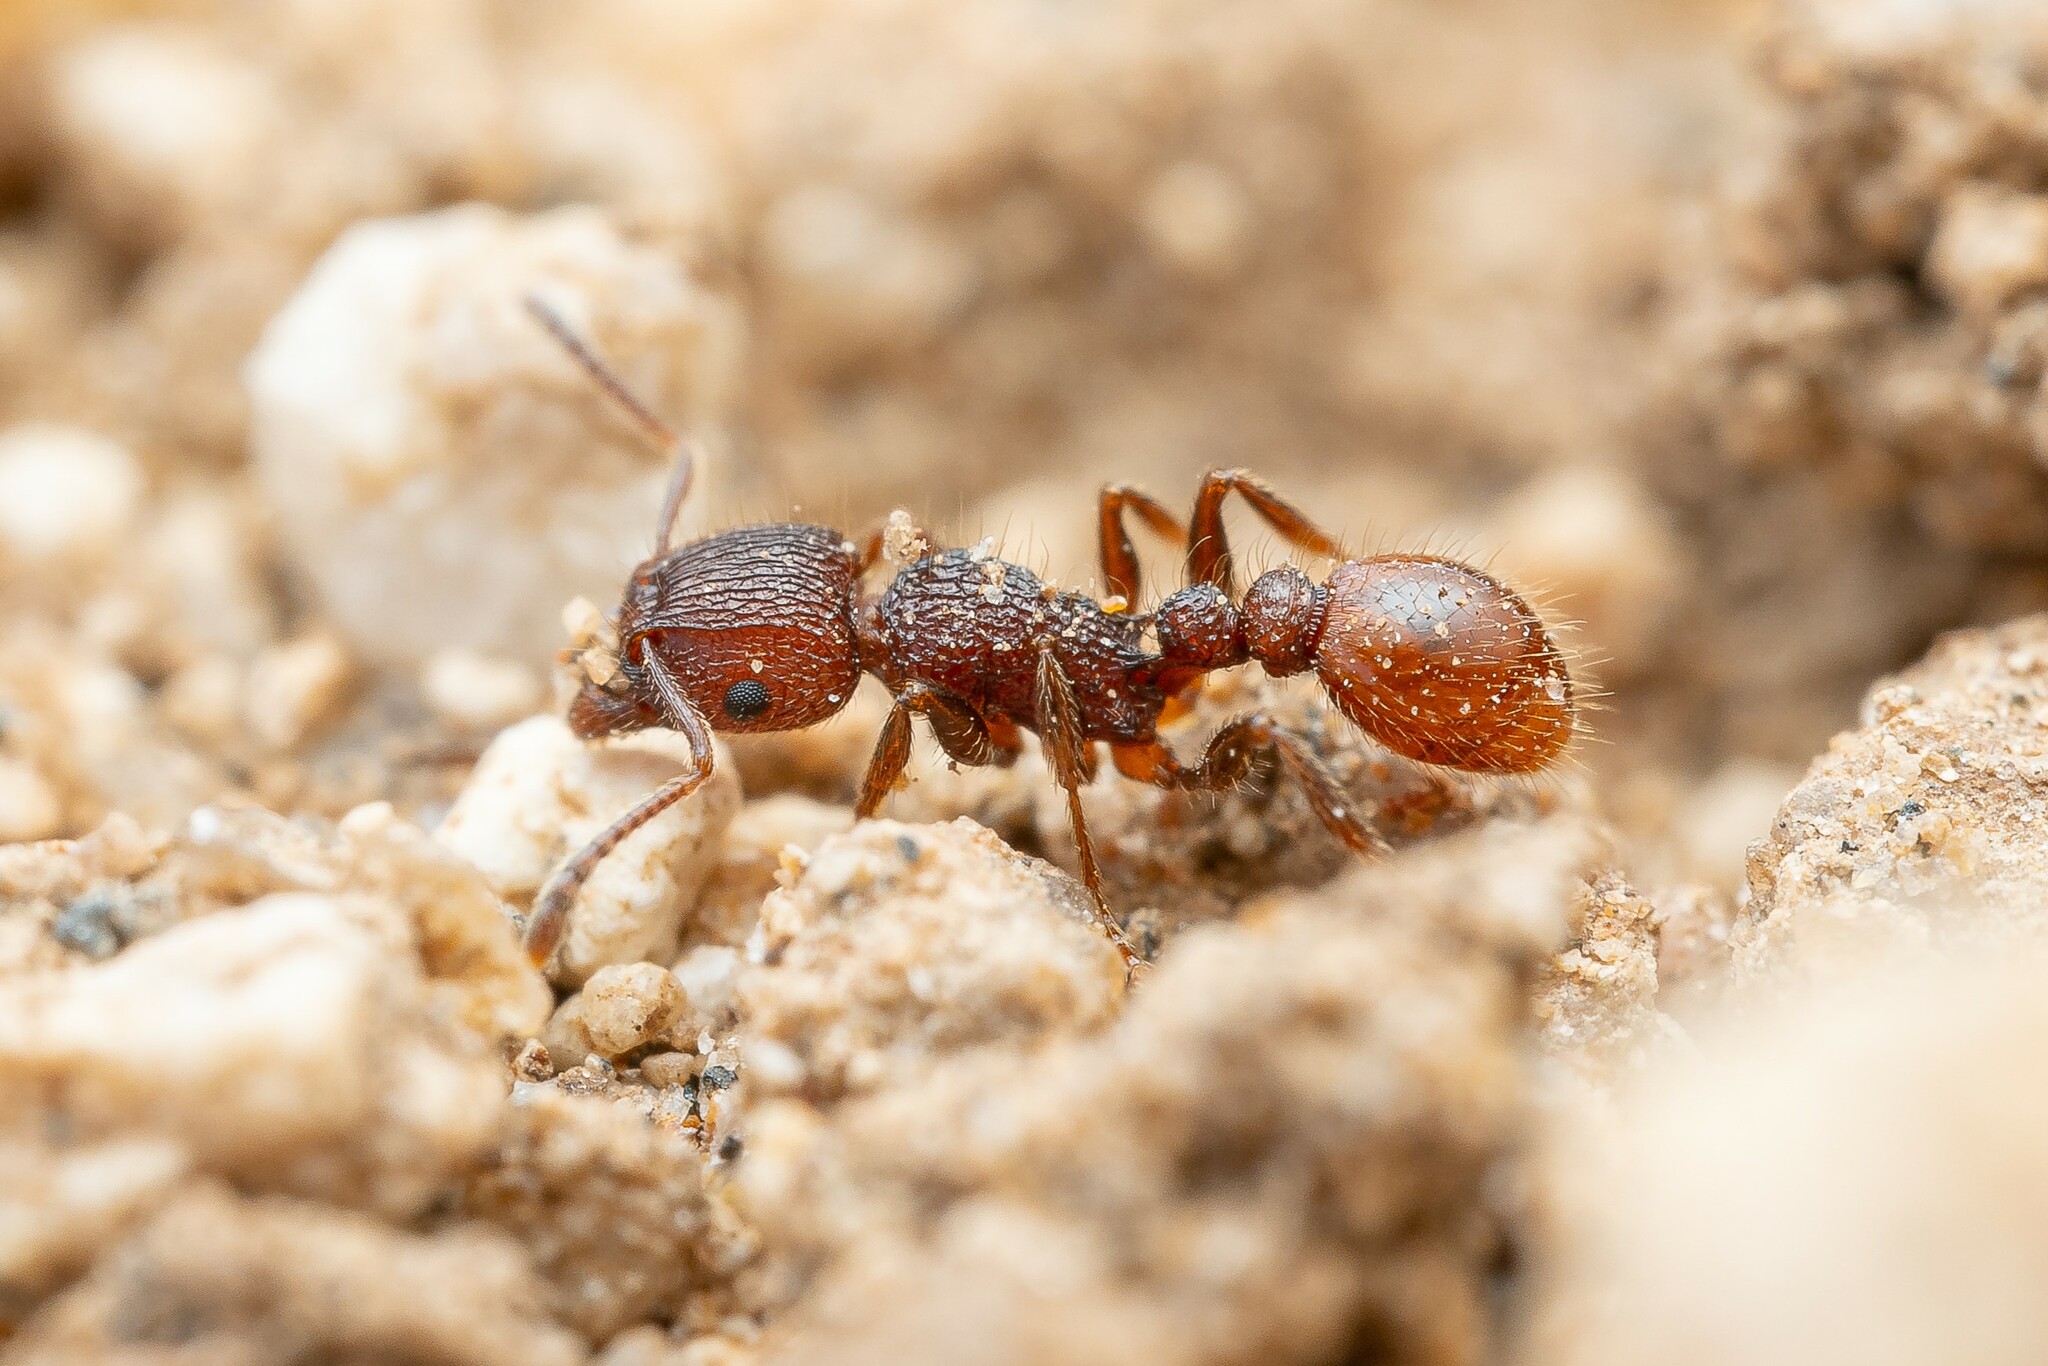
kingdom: Animalia
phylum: Arthropoda
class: Insecta
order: Hymenoptera
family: Formicidae
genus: Tetramorium
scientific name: Tetramorium spinosum
